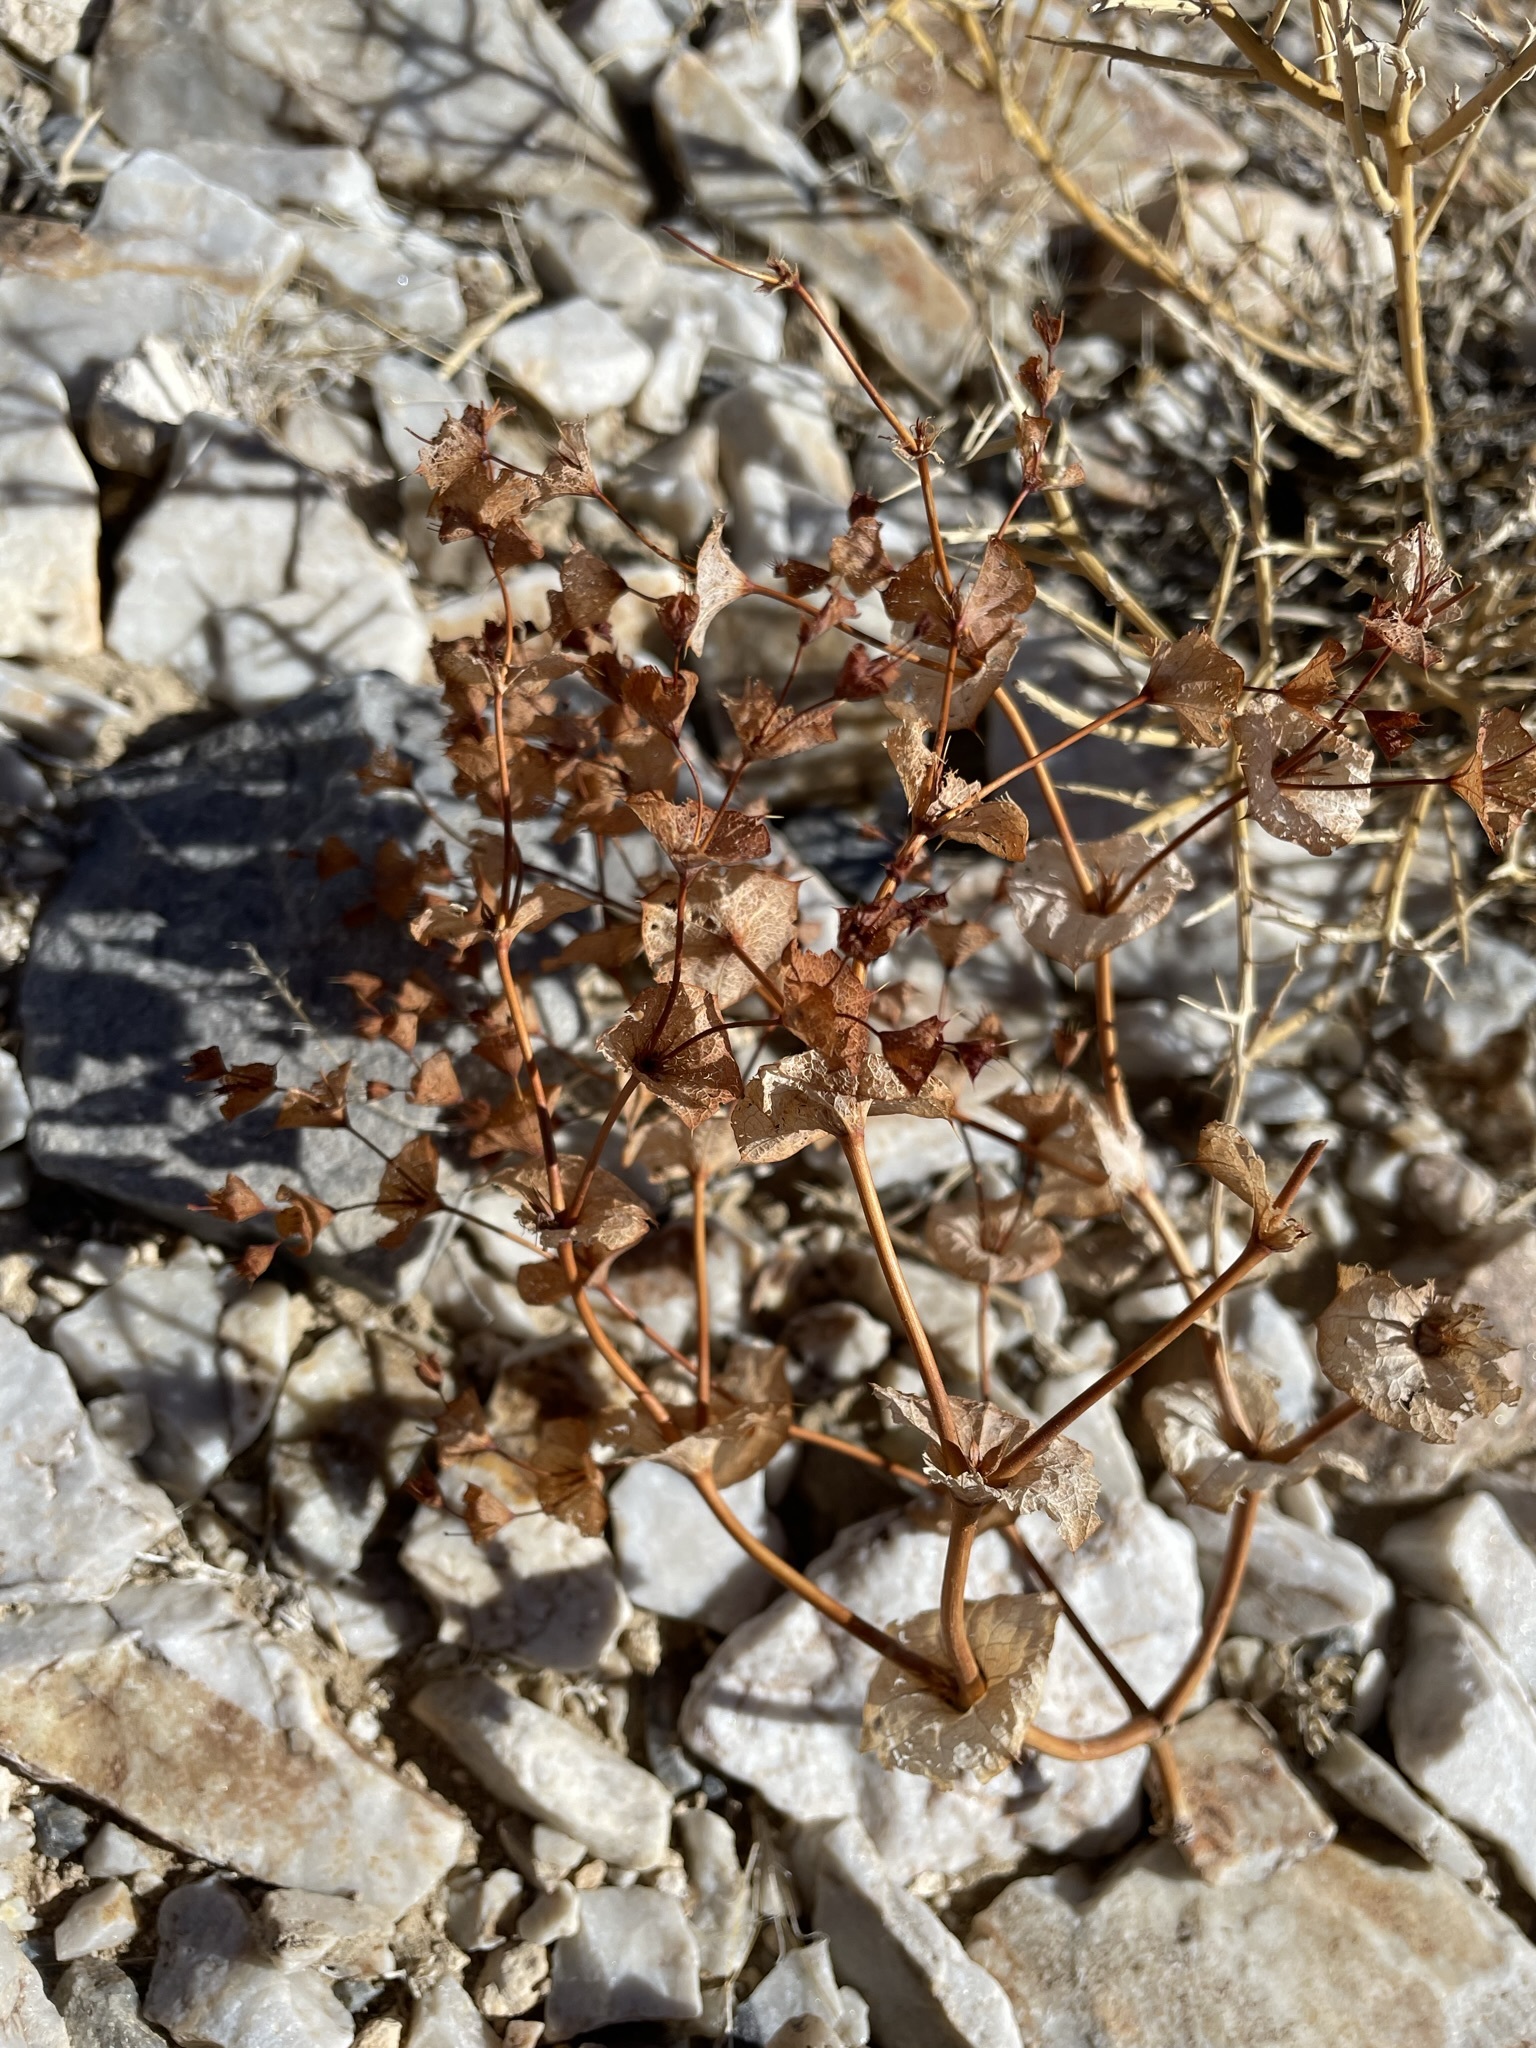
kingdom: Plantae
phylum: Tracheophyta
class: Magnoliopsida
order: Caryophyllales
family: Polygonaceae
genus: Oxytheca
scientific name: Oxytheca perfoliata
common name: Round-leaf puncturebract
